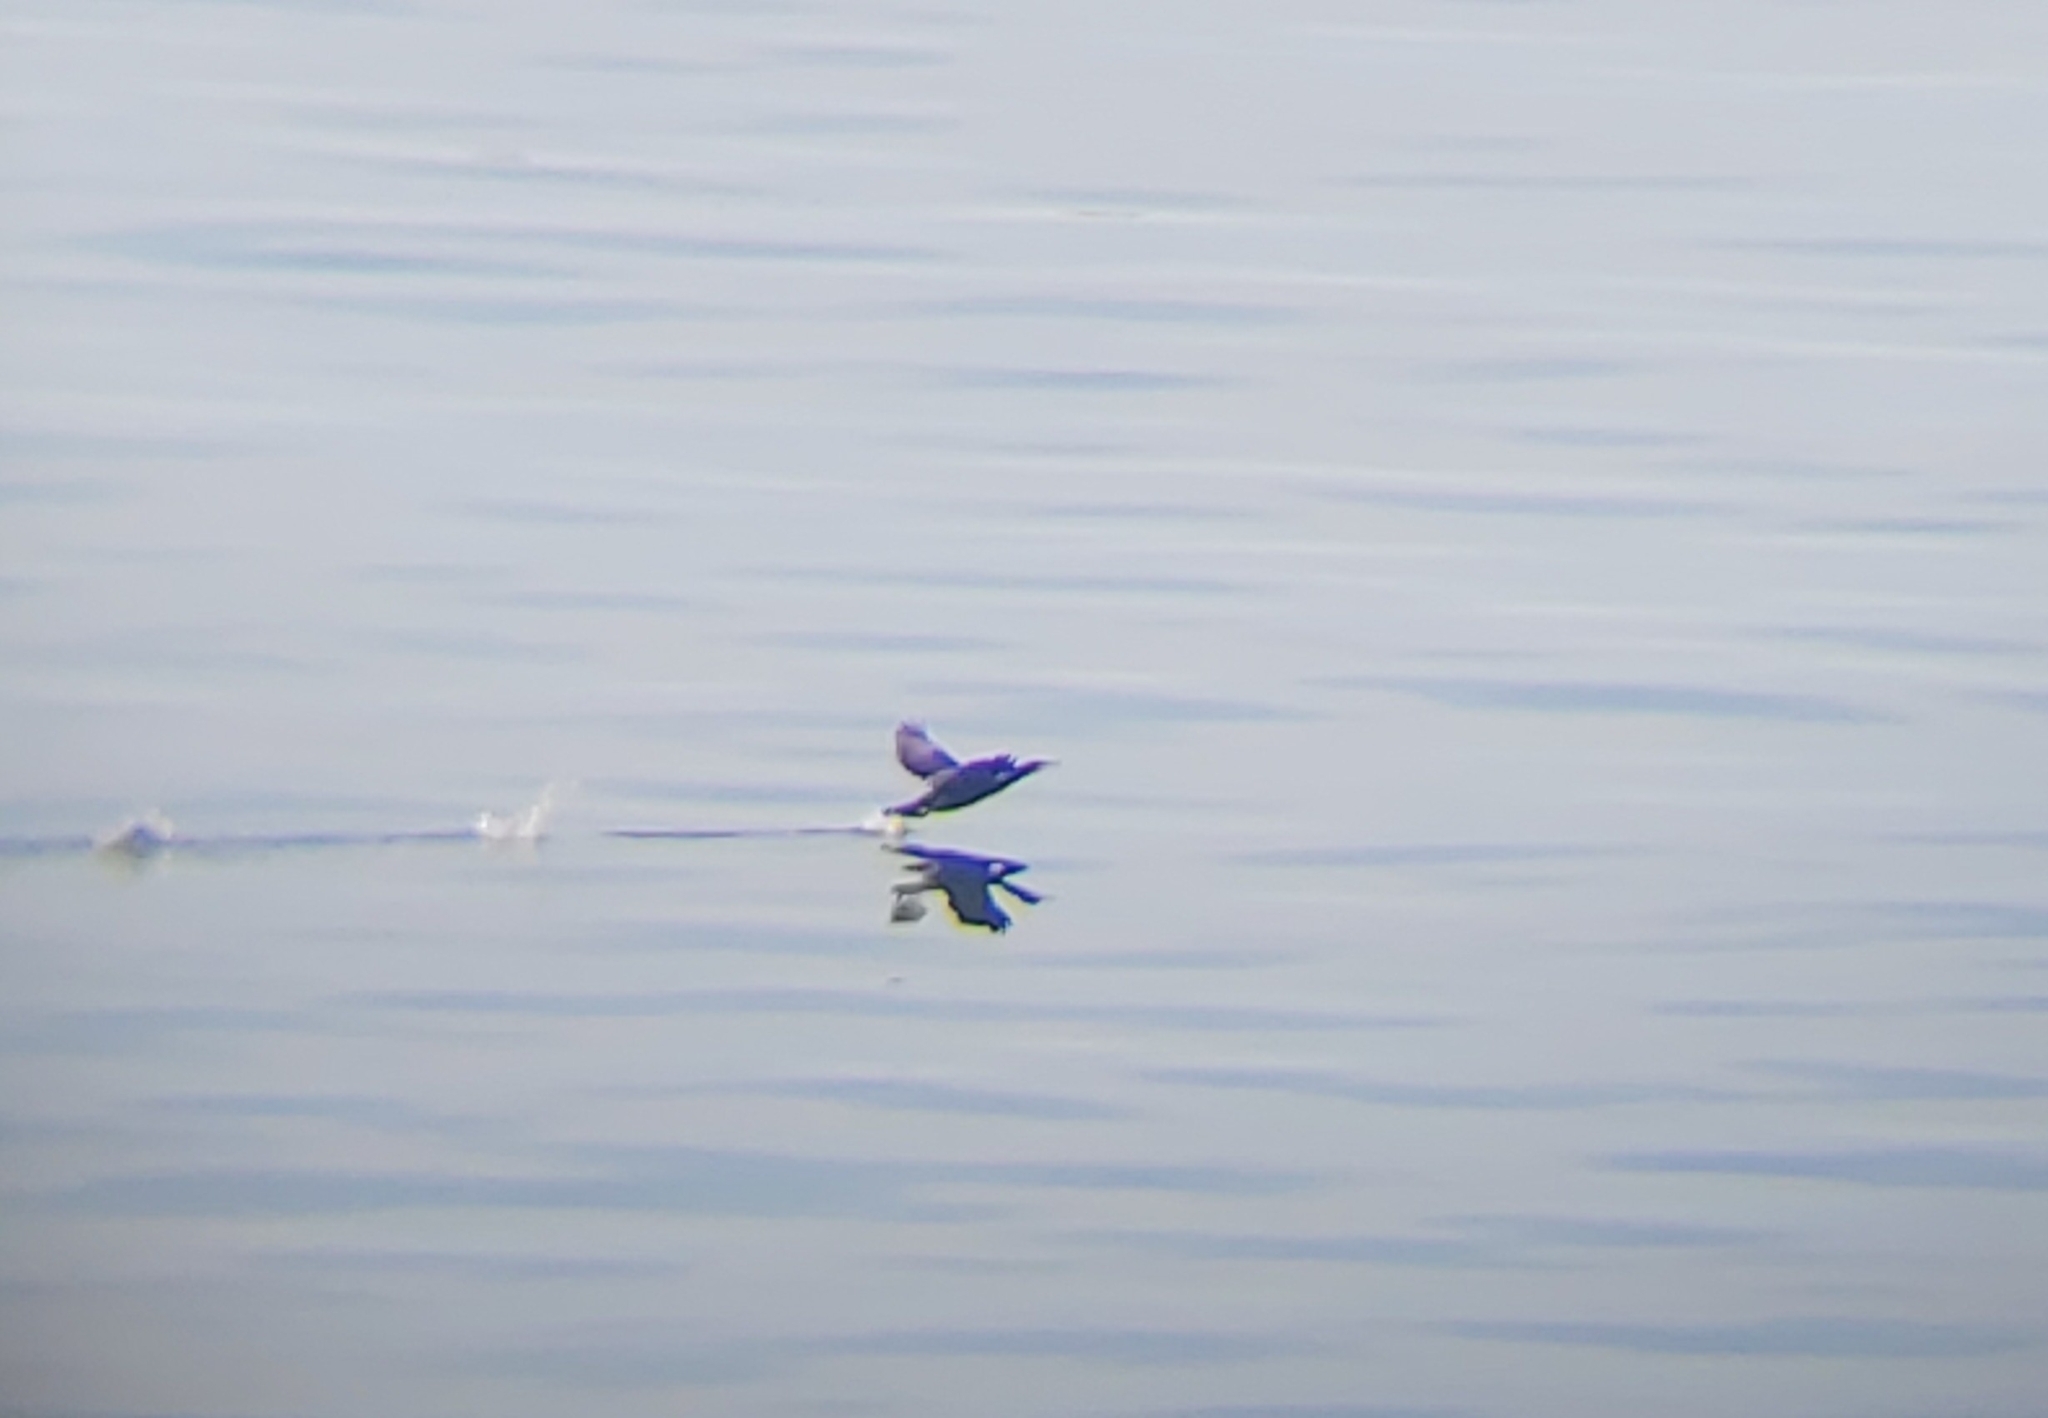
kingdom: Animalia
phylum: Chordata
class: Aves
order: Suliformes
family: Phalacrocoracidae
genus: Phalacrocorax
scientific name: Phalacrocorax carbo
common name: Great cormorant
